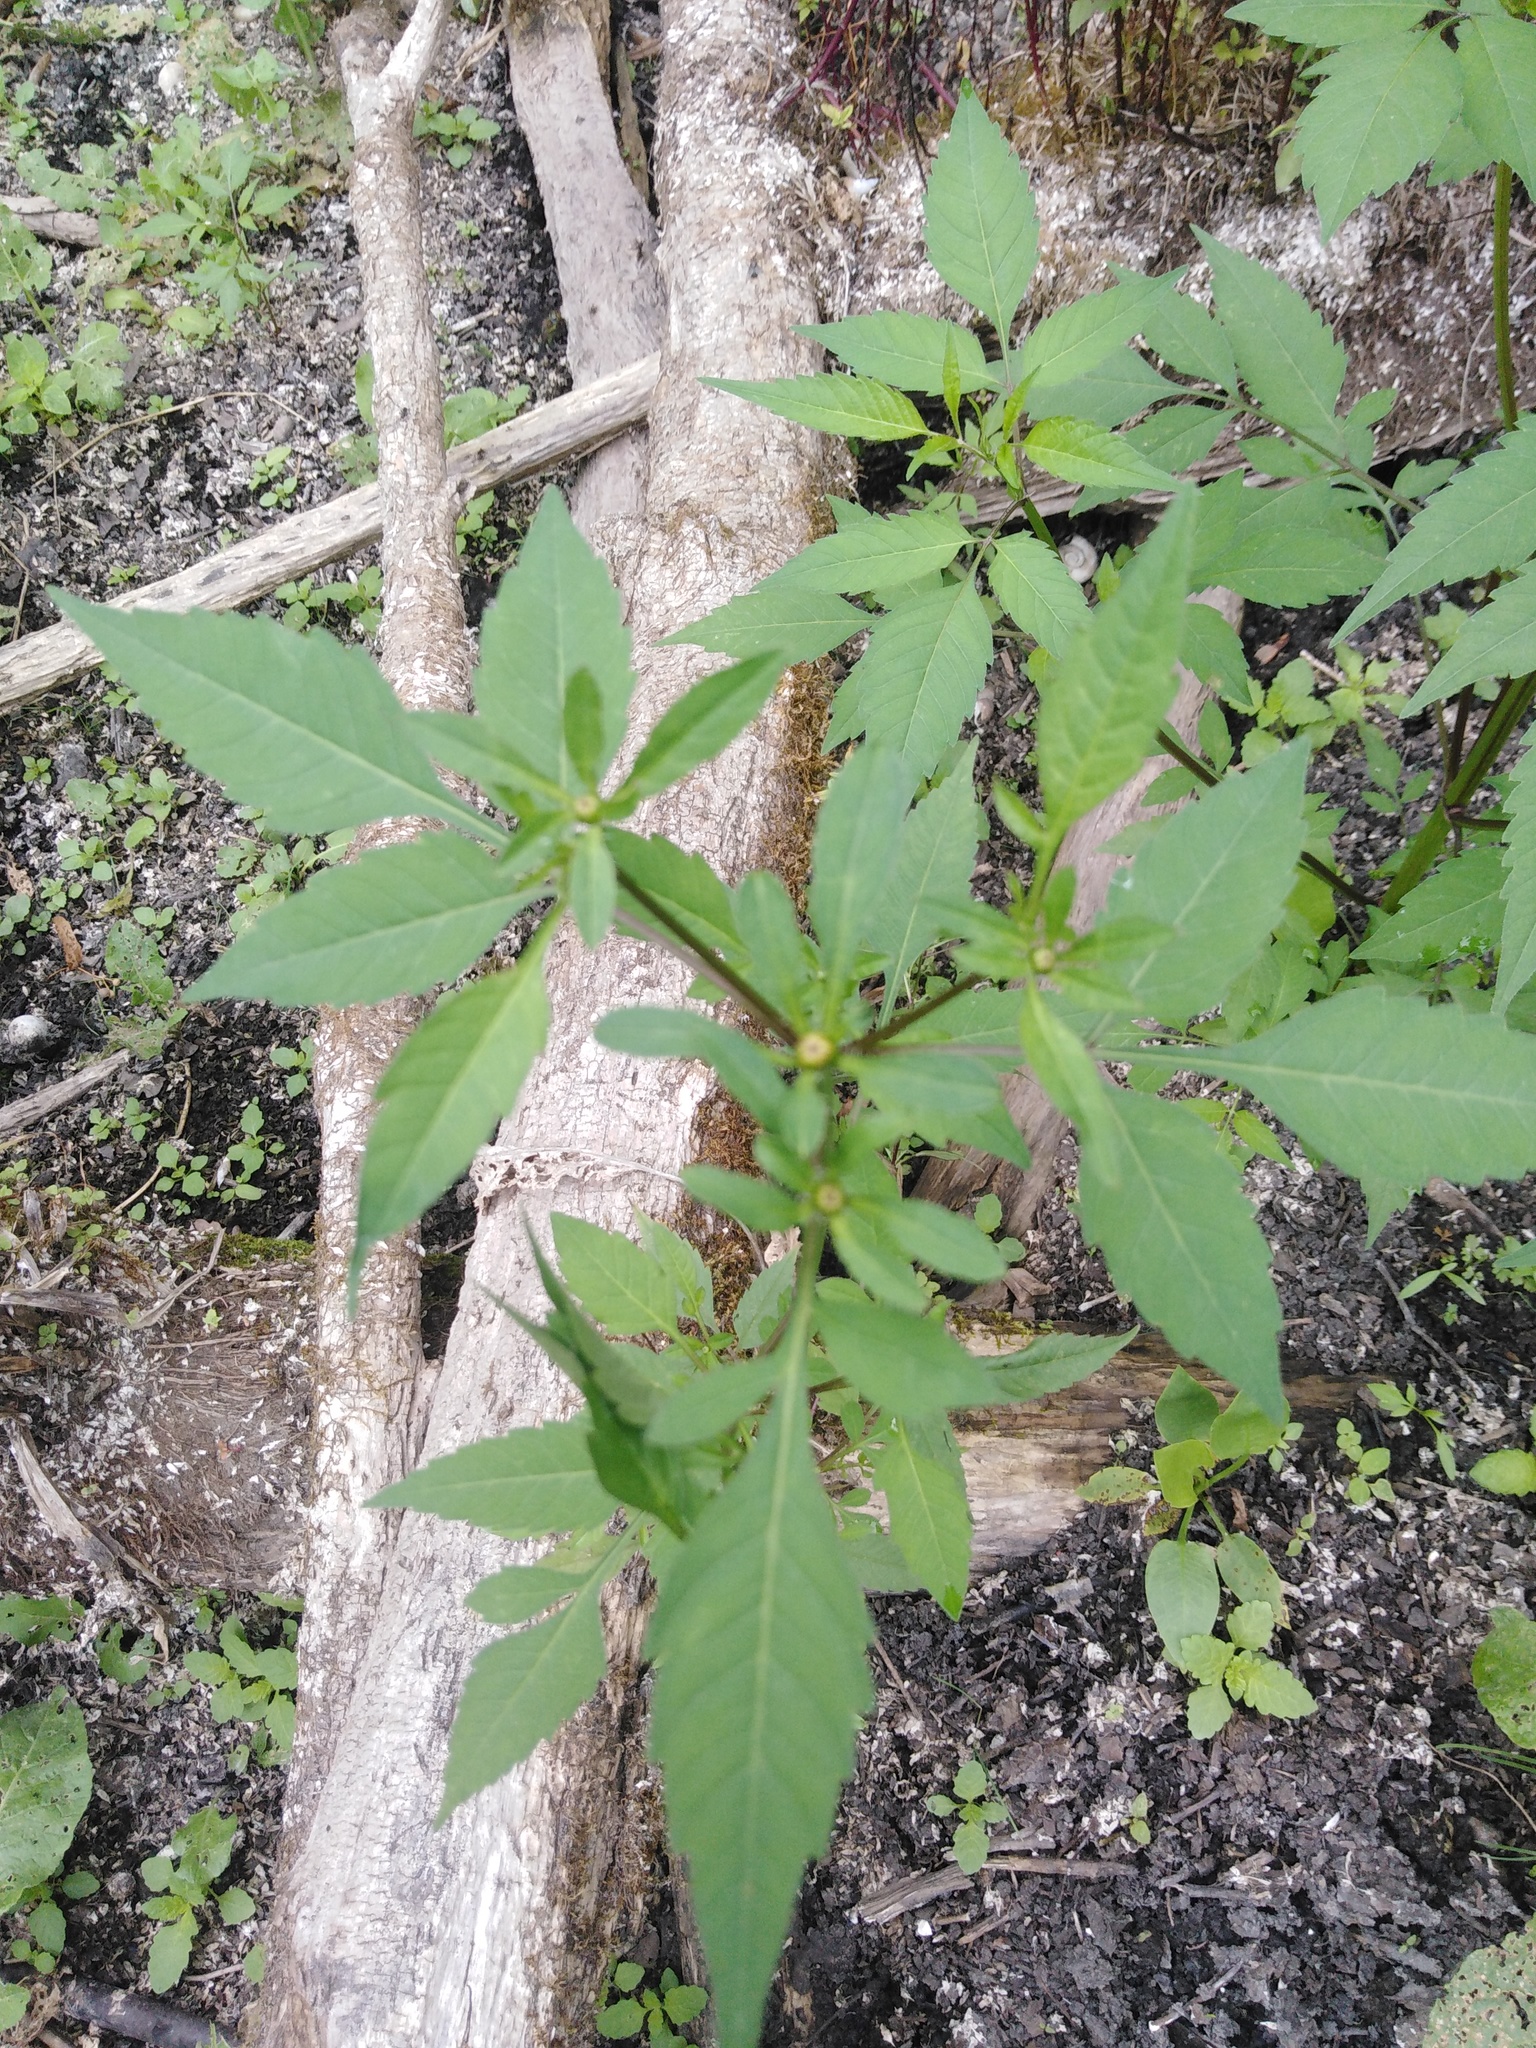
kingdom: Plantae
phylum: Tracheophyta
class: Magnoliopsida
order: Asterales
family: Asteraceae
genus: Bidens
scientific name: Bidens frondosa
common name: Beggarticks
